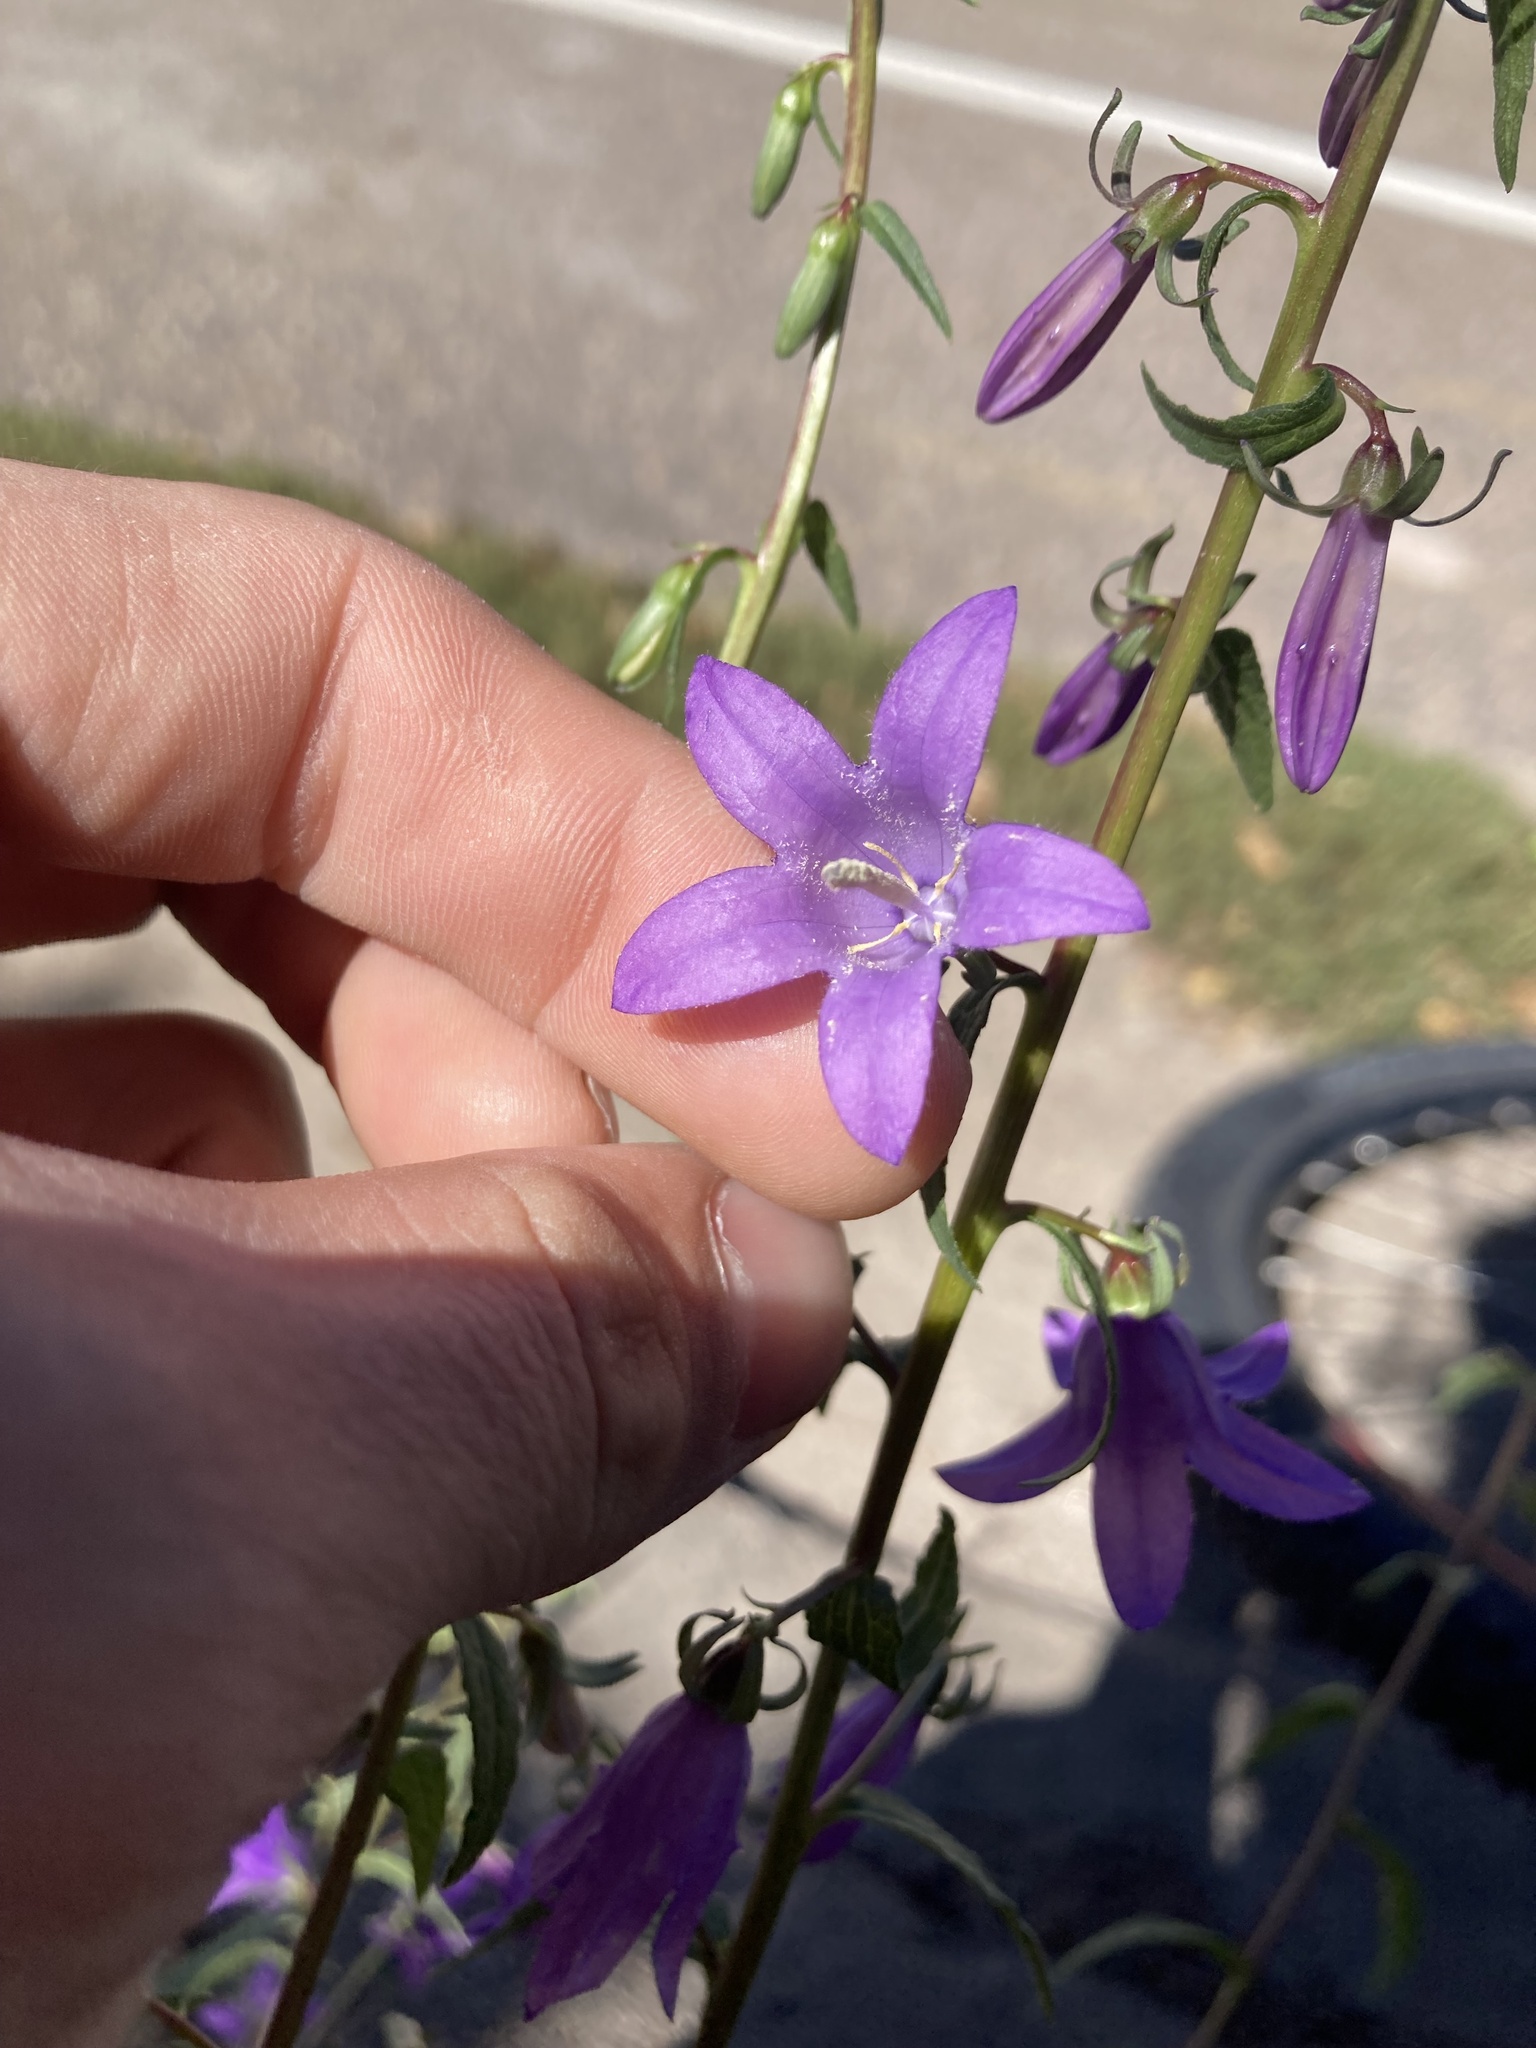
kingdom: Plantae
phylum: Tracheophyta
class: Magnoliopsida
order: Asterales
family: Campanulaceae
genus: Campanula
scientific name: Campanula rapunculoides
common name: Creeping bellflower
